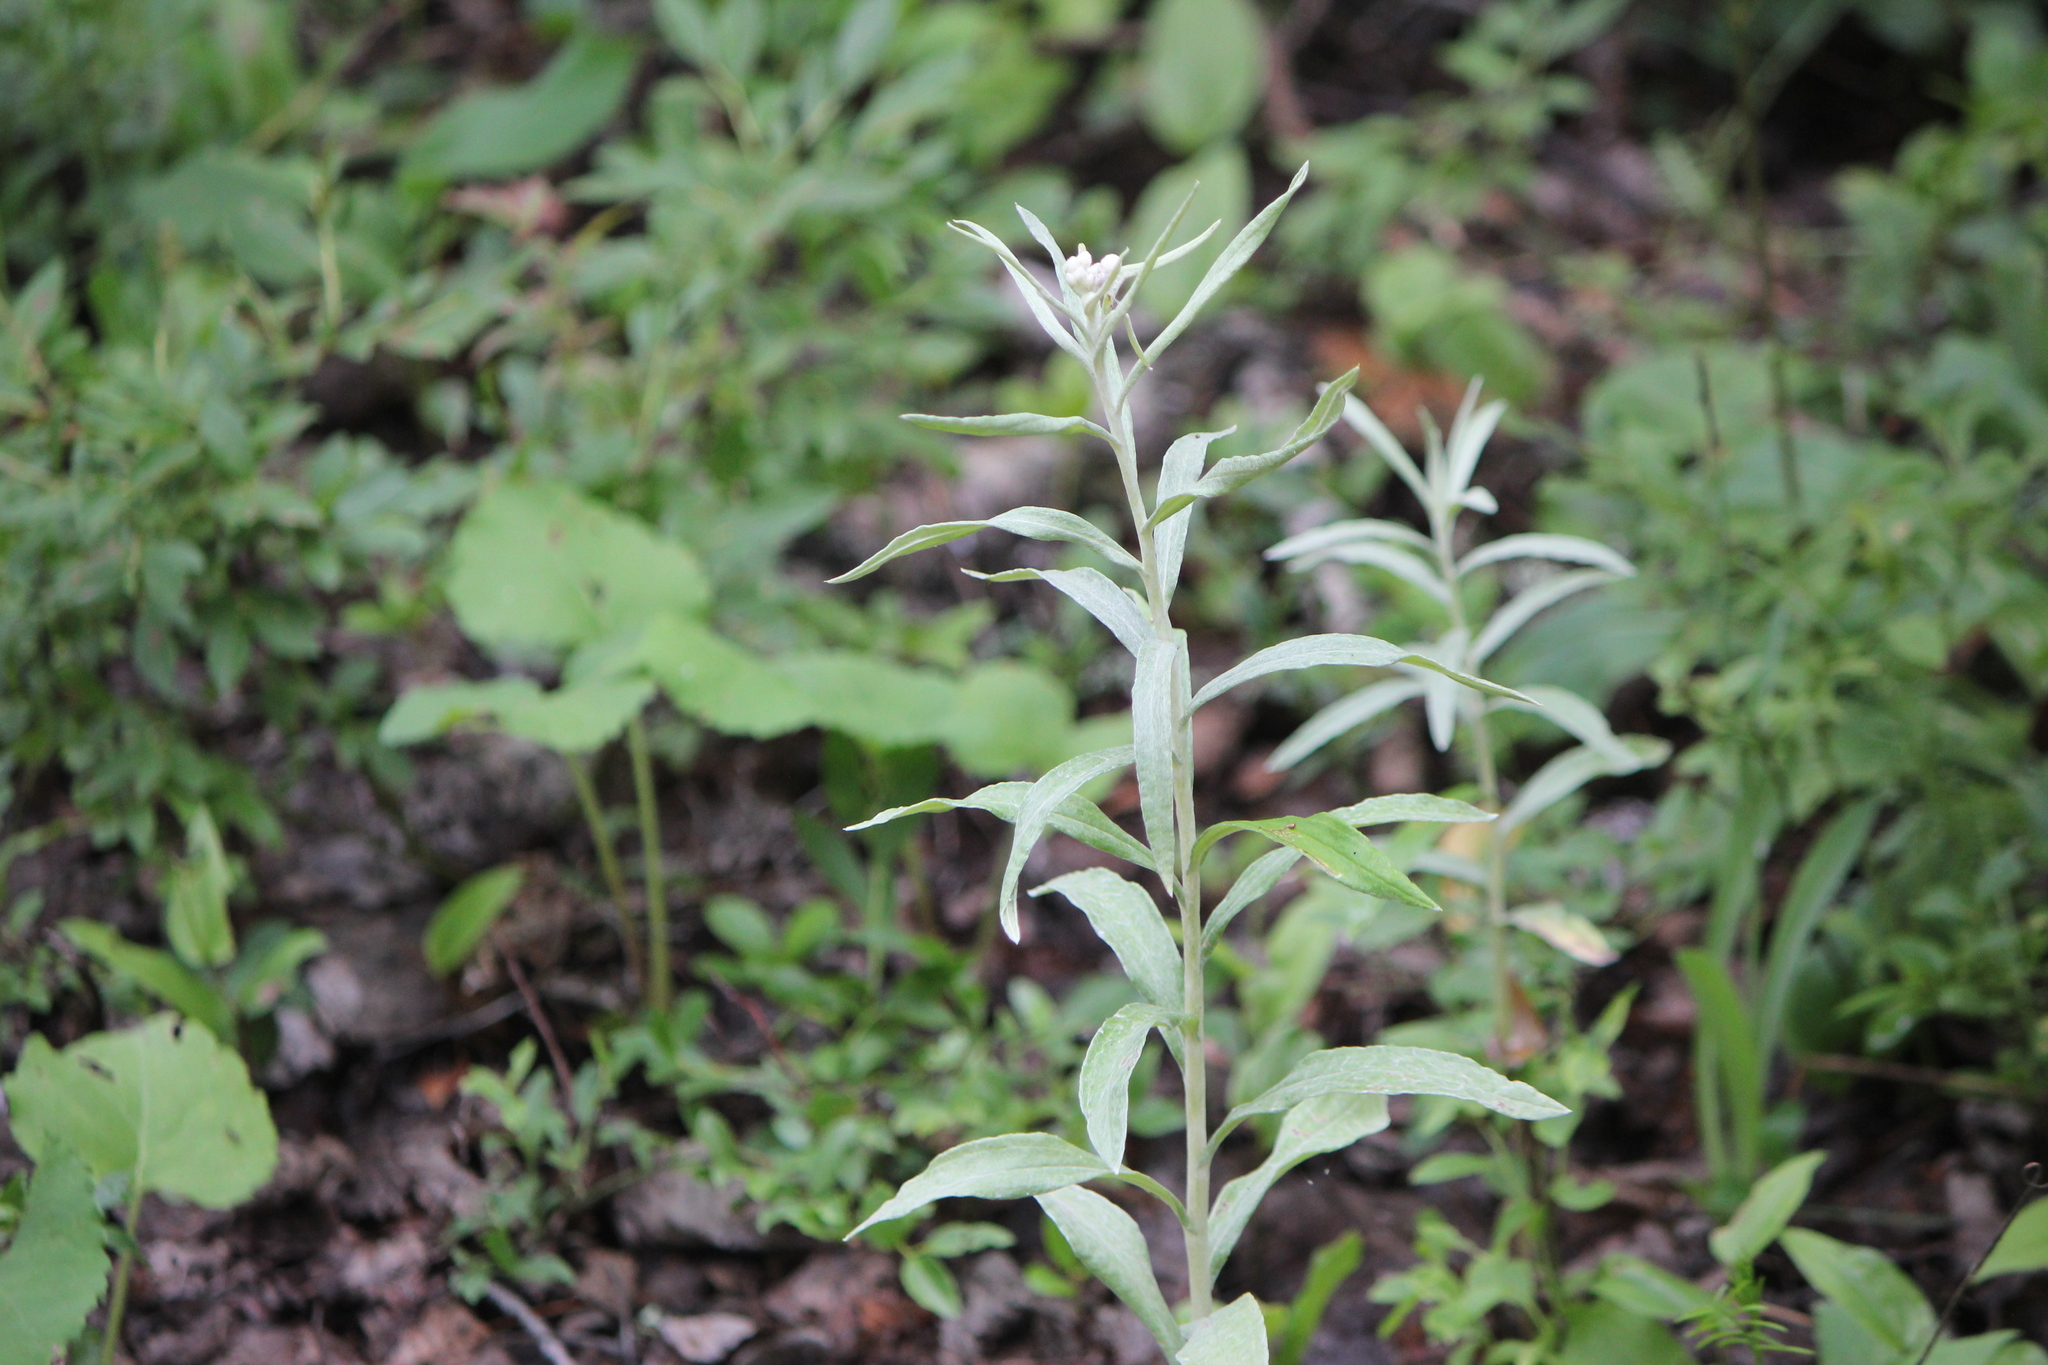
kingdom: Plantae
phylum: Tracheophyta
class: Magnoliopsida
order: Asterales
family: Asteraceae
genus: Anaphalis
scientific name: Anaphalis margaritacea
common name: Pearly everlasting
